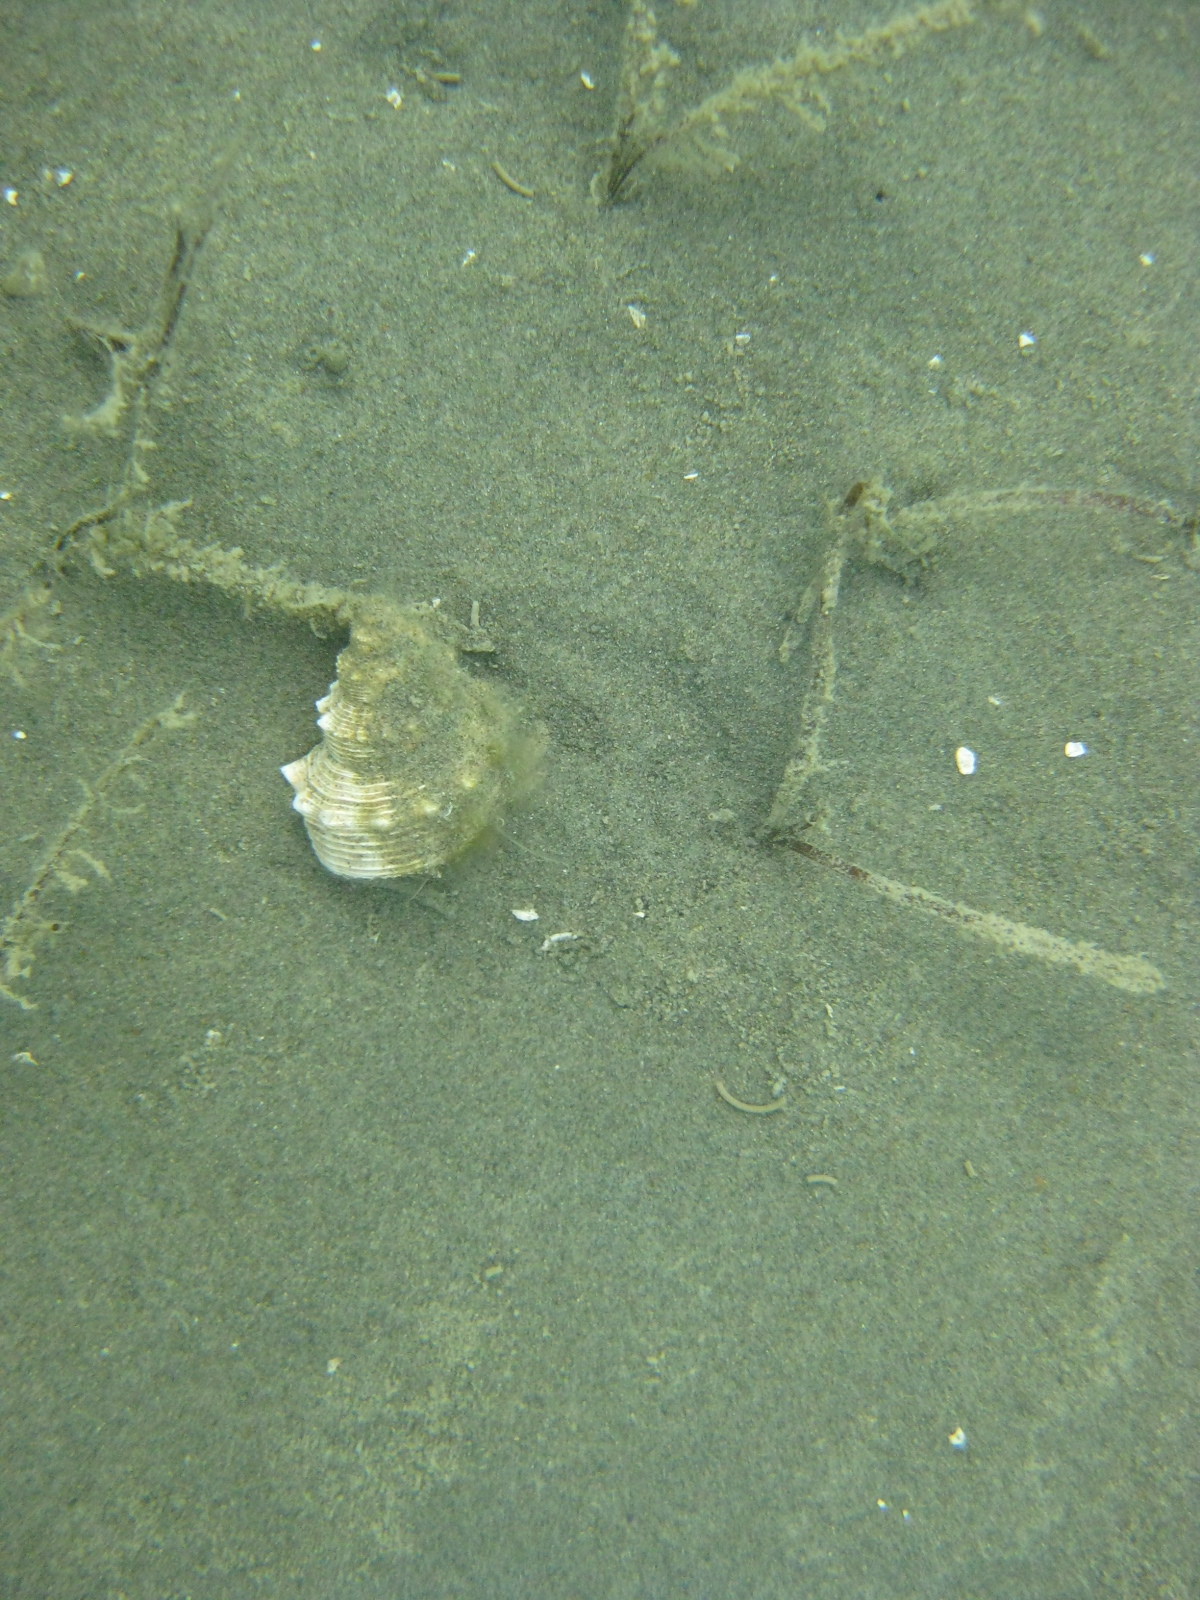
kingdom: Animalia
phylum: Mollusca
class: Gastropoda
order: Littorinimorpha
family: Struthiolariidae
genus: Struthiolaria
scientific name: Struthiolaria papulosa
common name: Large ostrich foot
